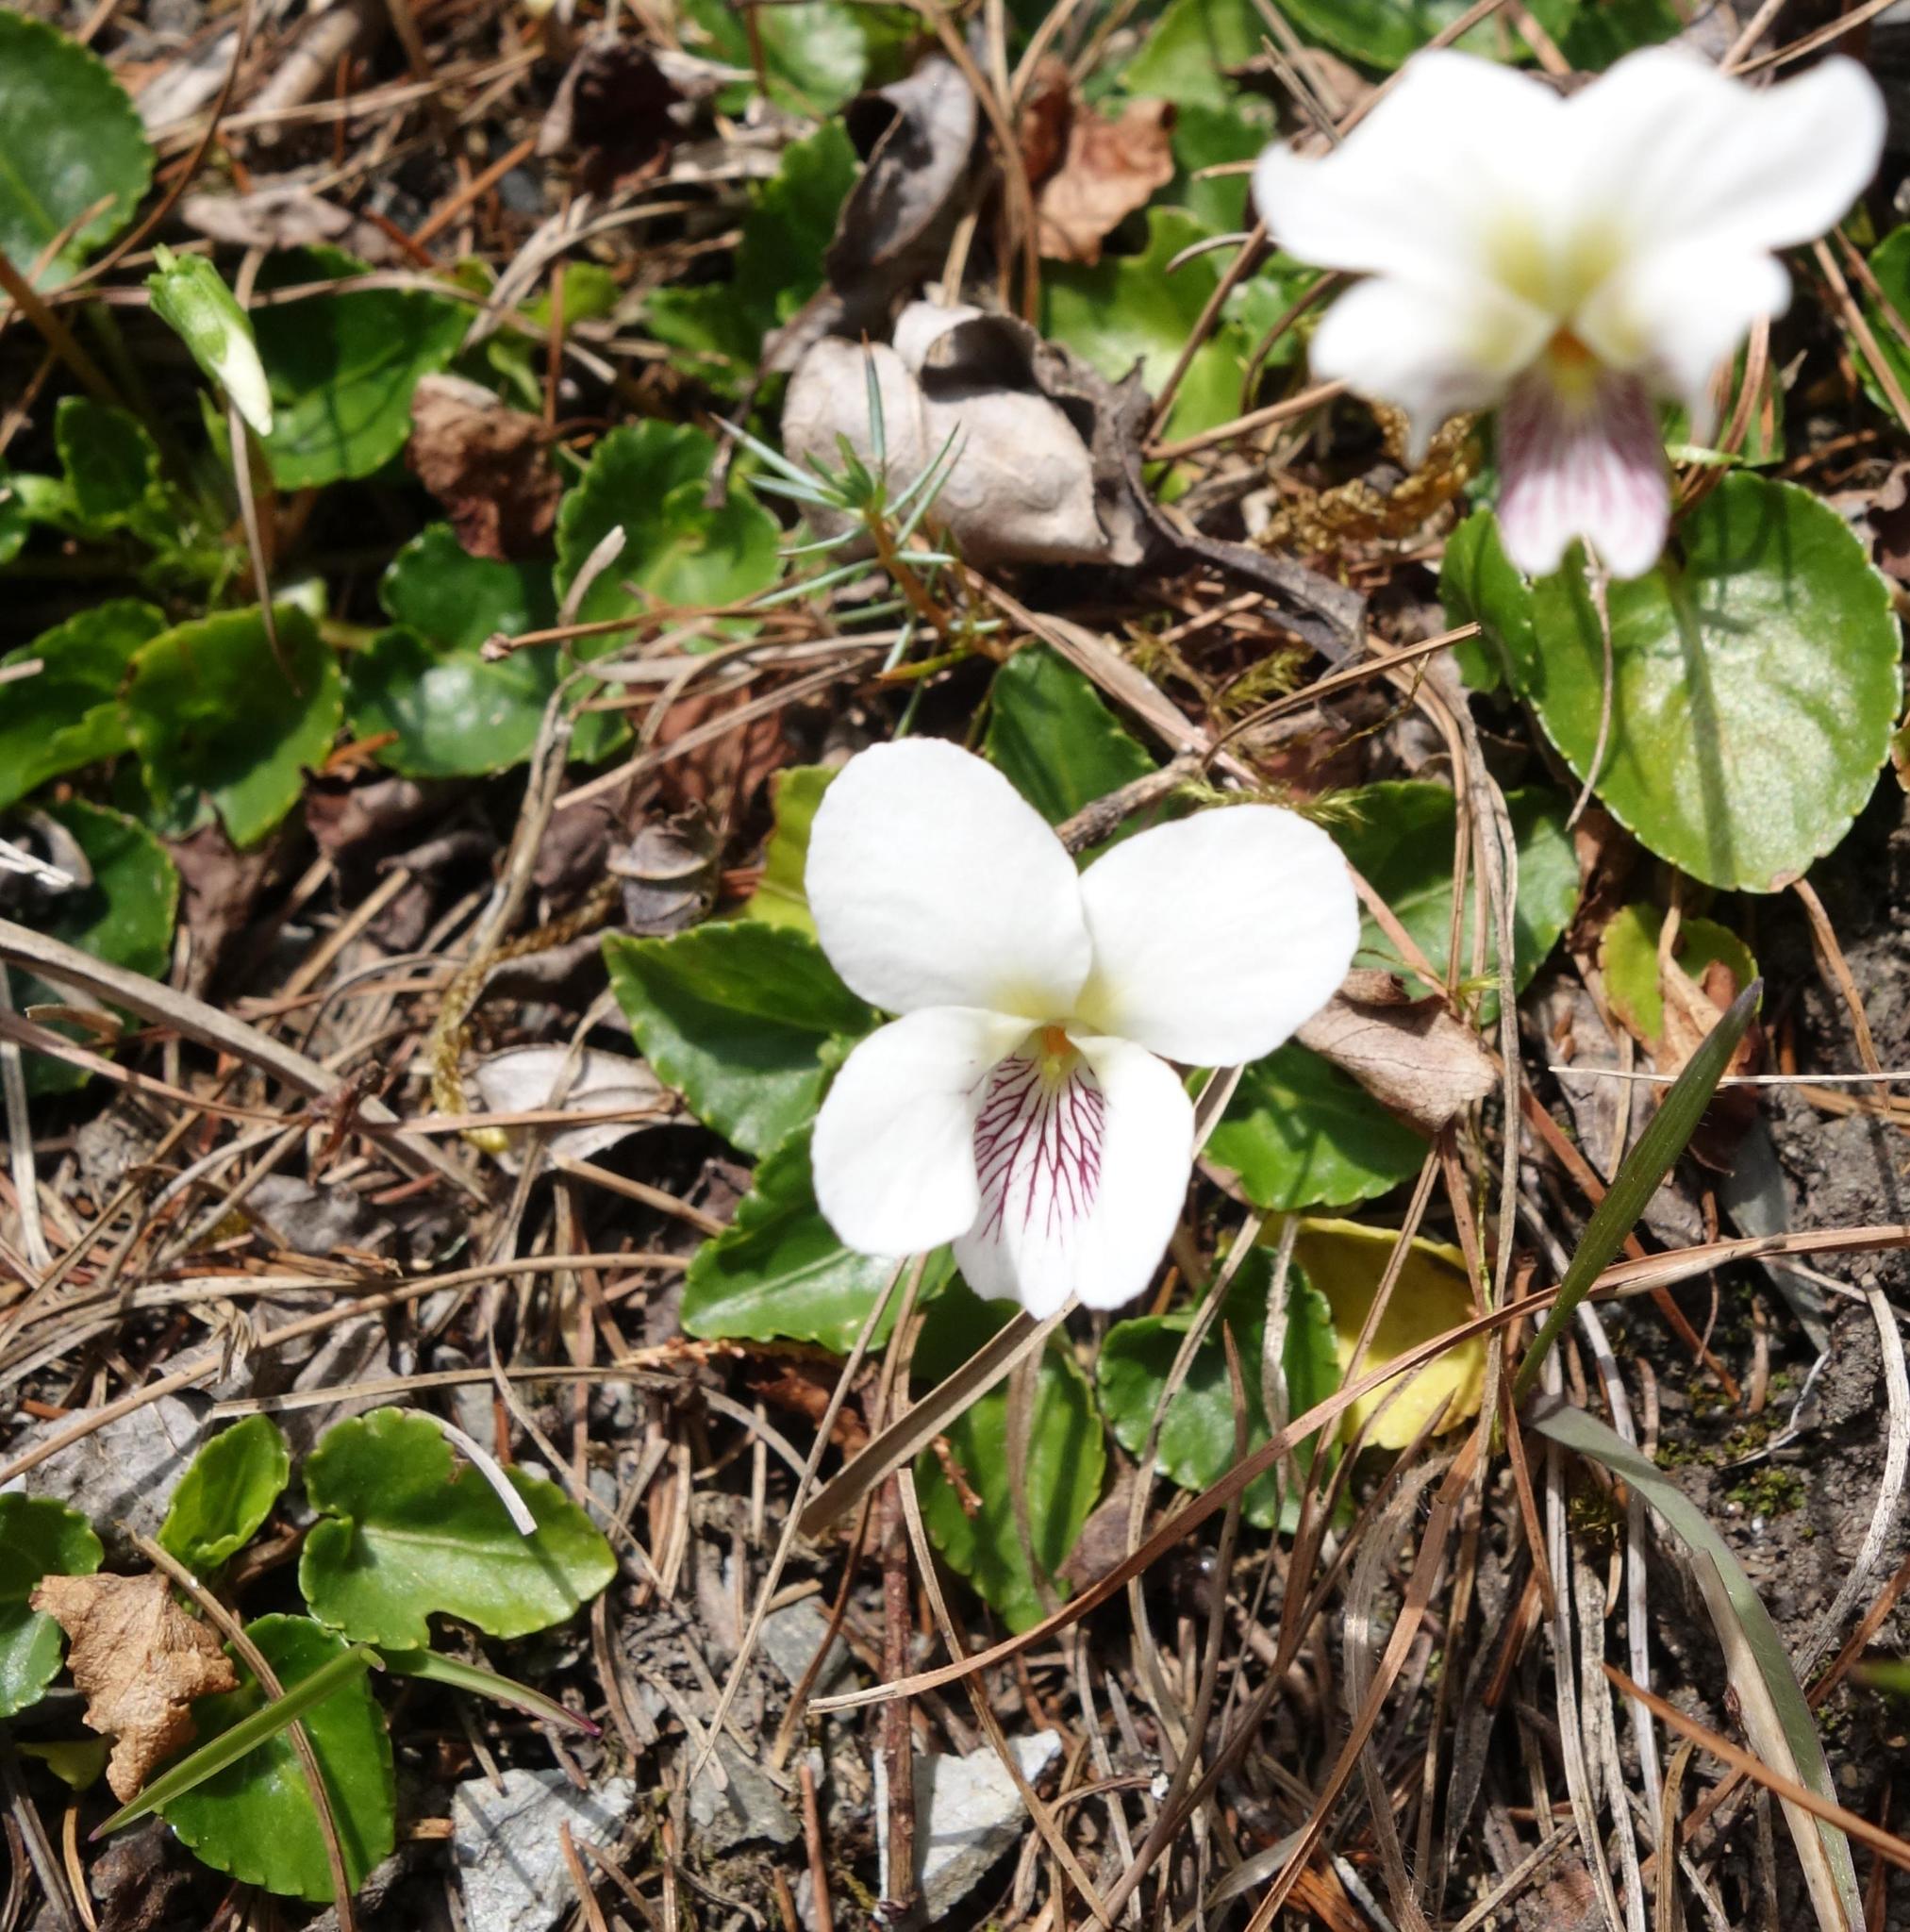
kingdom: Plantae
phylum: Tracheophyta
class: Magnoliopsida
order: Malpighiales
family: Violaceae
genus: Viola
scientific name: Viola fargesii
